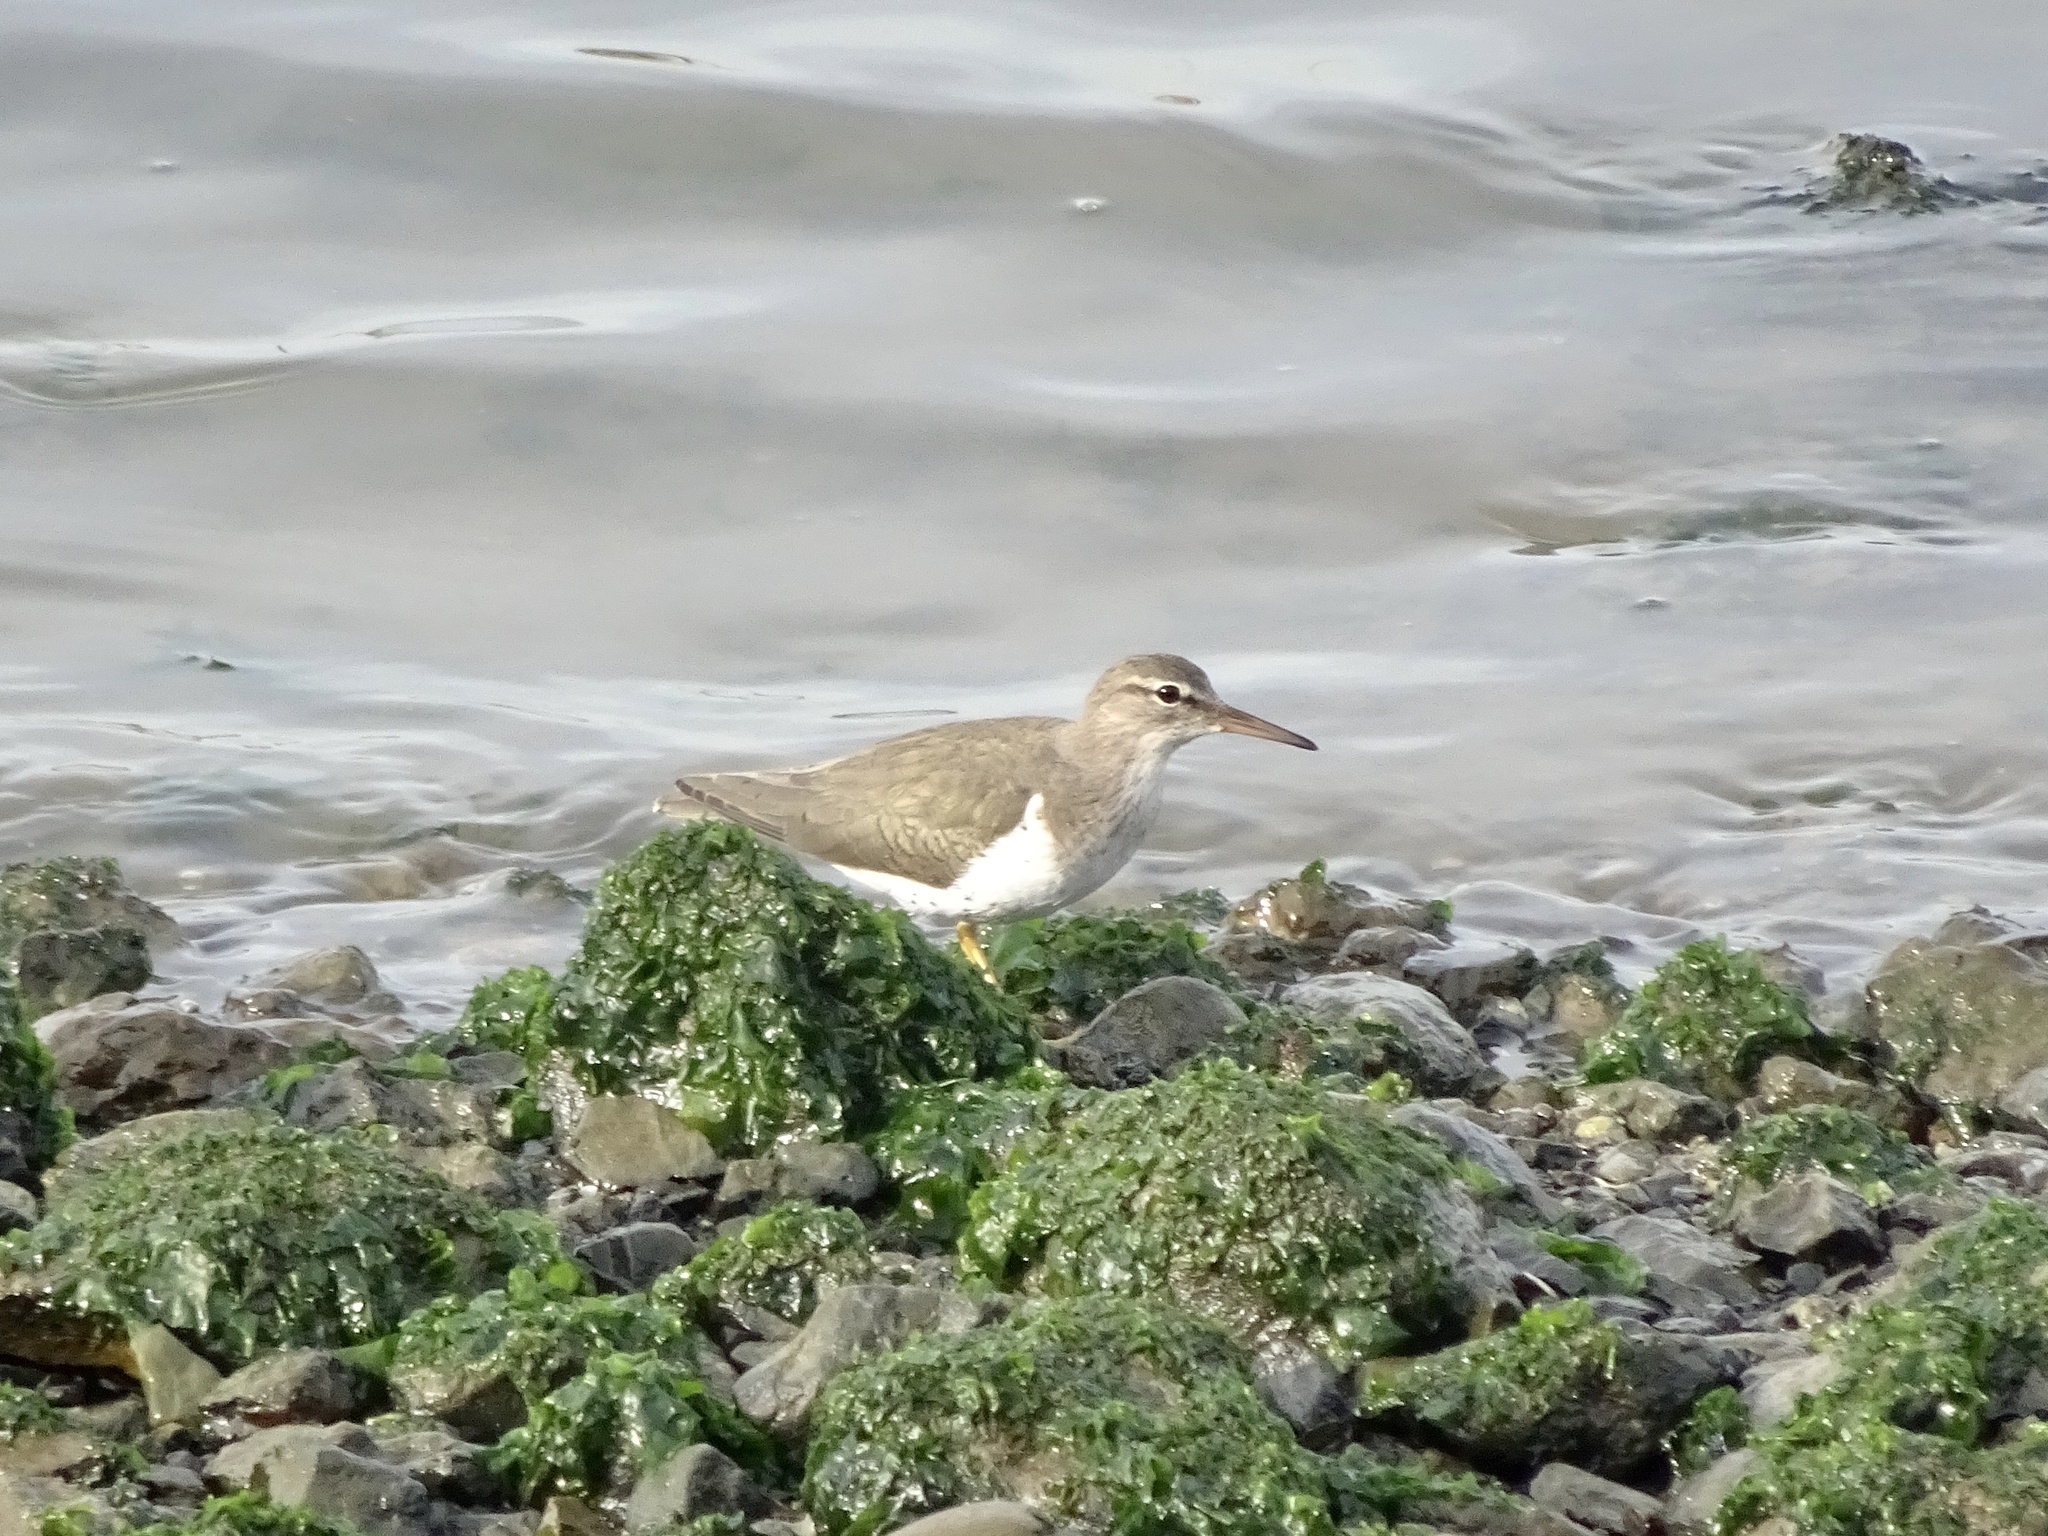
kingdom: Animalia
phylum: Chordata
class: Aves
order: Charadriiformes
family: Scolopacidae
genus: Actitis
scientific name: Actitis macularius
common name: Spotted sandpiper
